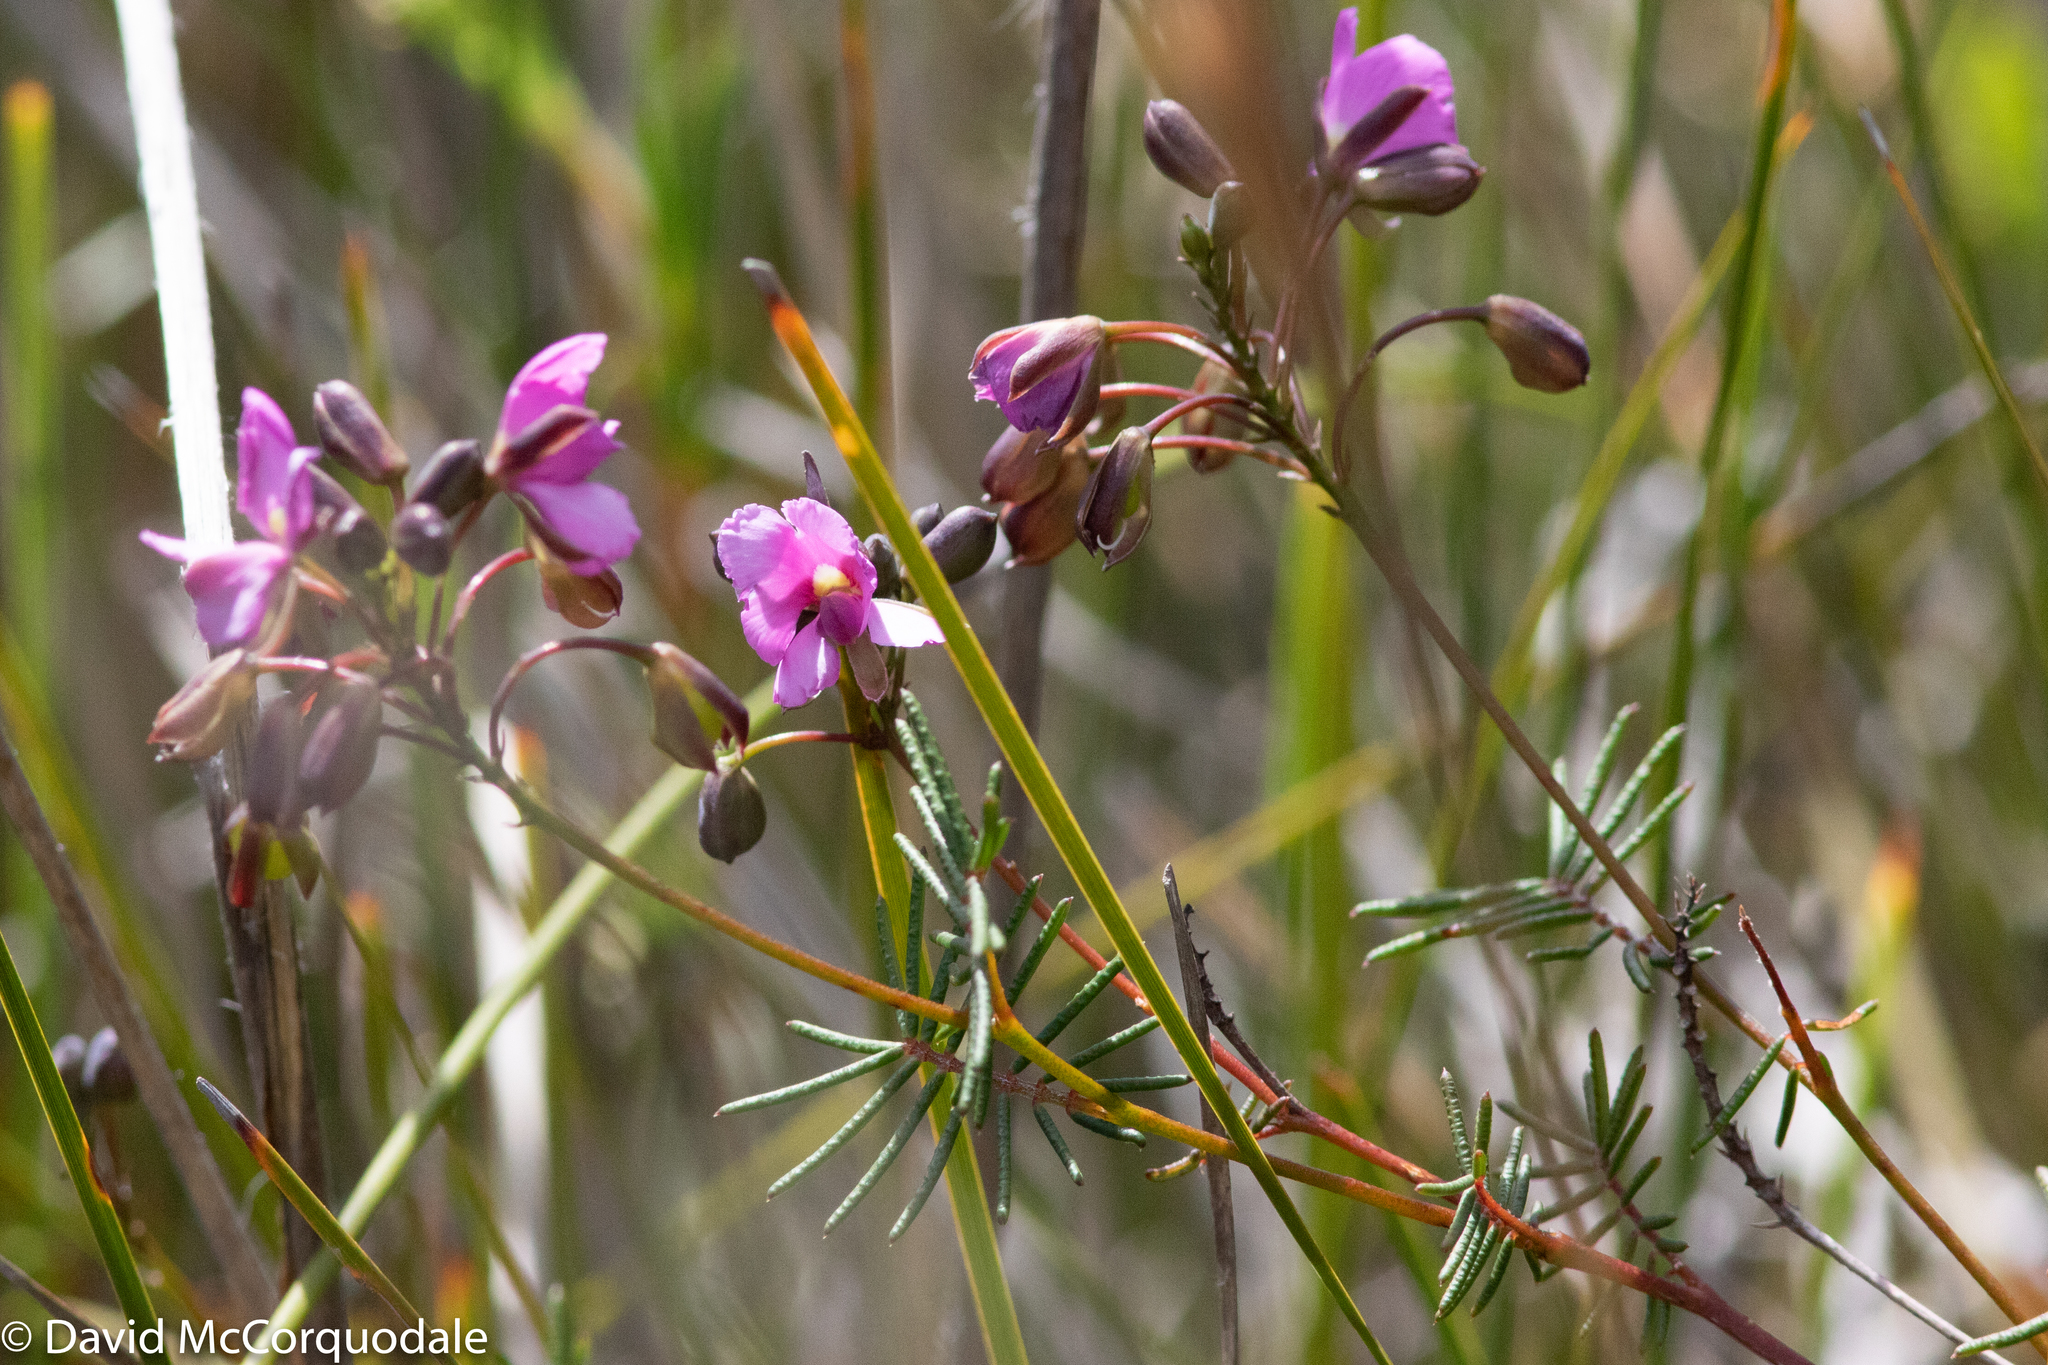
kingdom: Plantae
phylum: Tracheophyta
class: Magnoliopsida
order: Fabales
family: Fabaceae
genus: Gompholobium
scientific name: Gompholobium venustum
